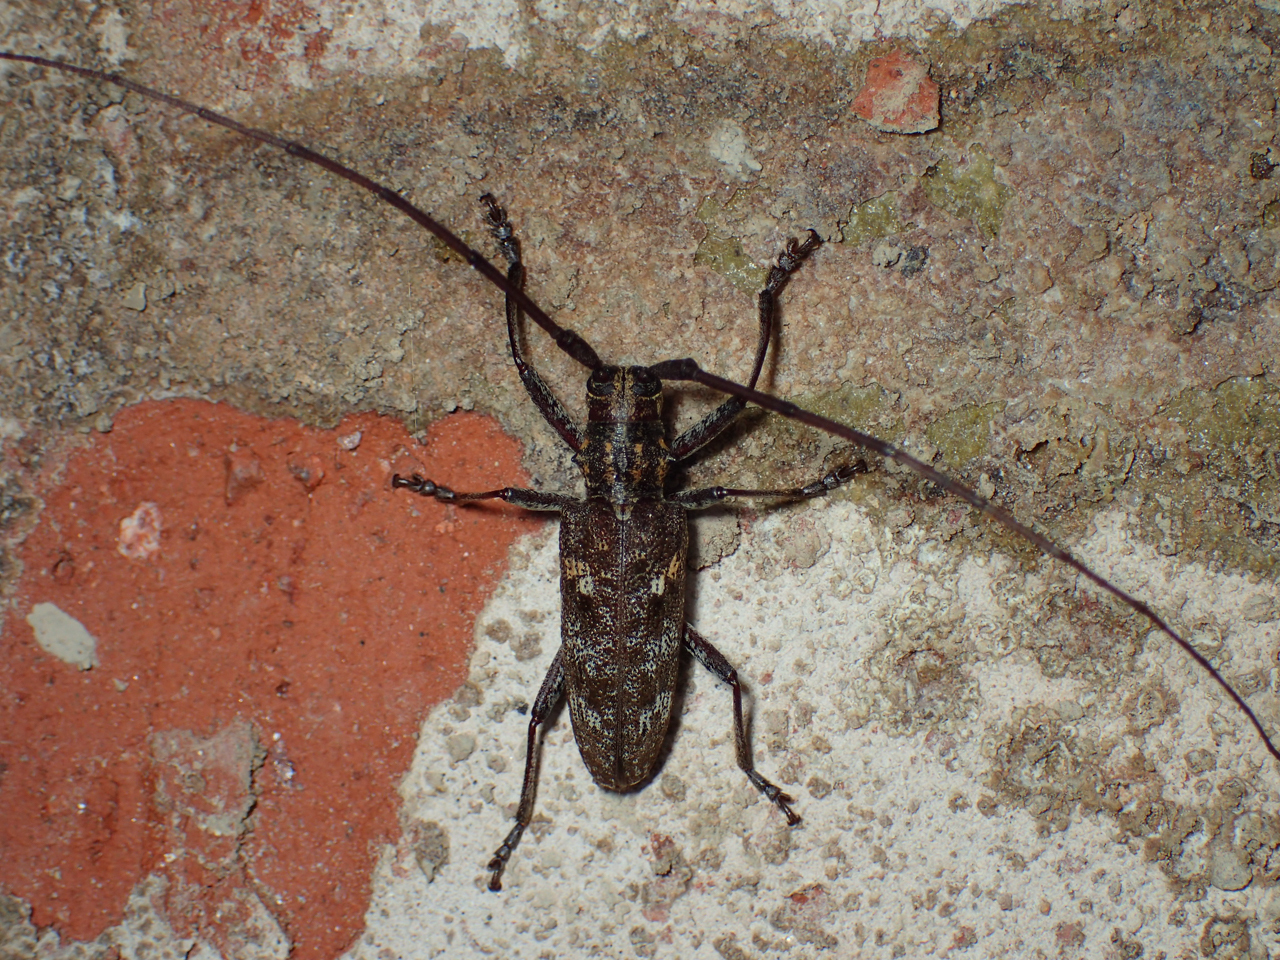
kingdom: Animalia
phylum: Arthropoda
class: Insecta
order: Coleoptera
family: Cerambycidae
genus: Monochamus
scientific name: Monochamus carolinensis
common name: Carolina pine sawyer
